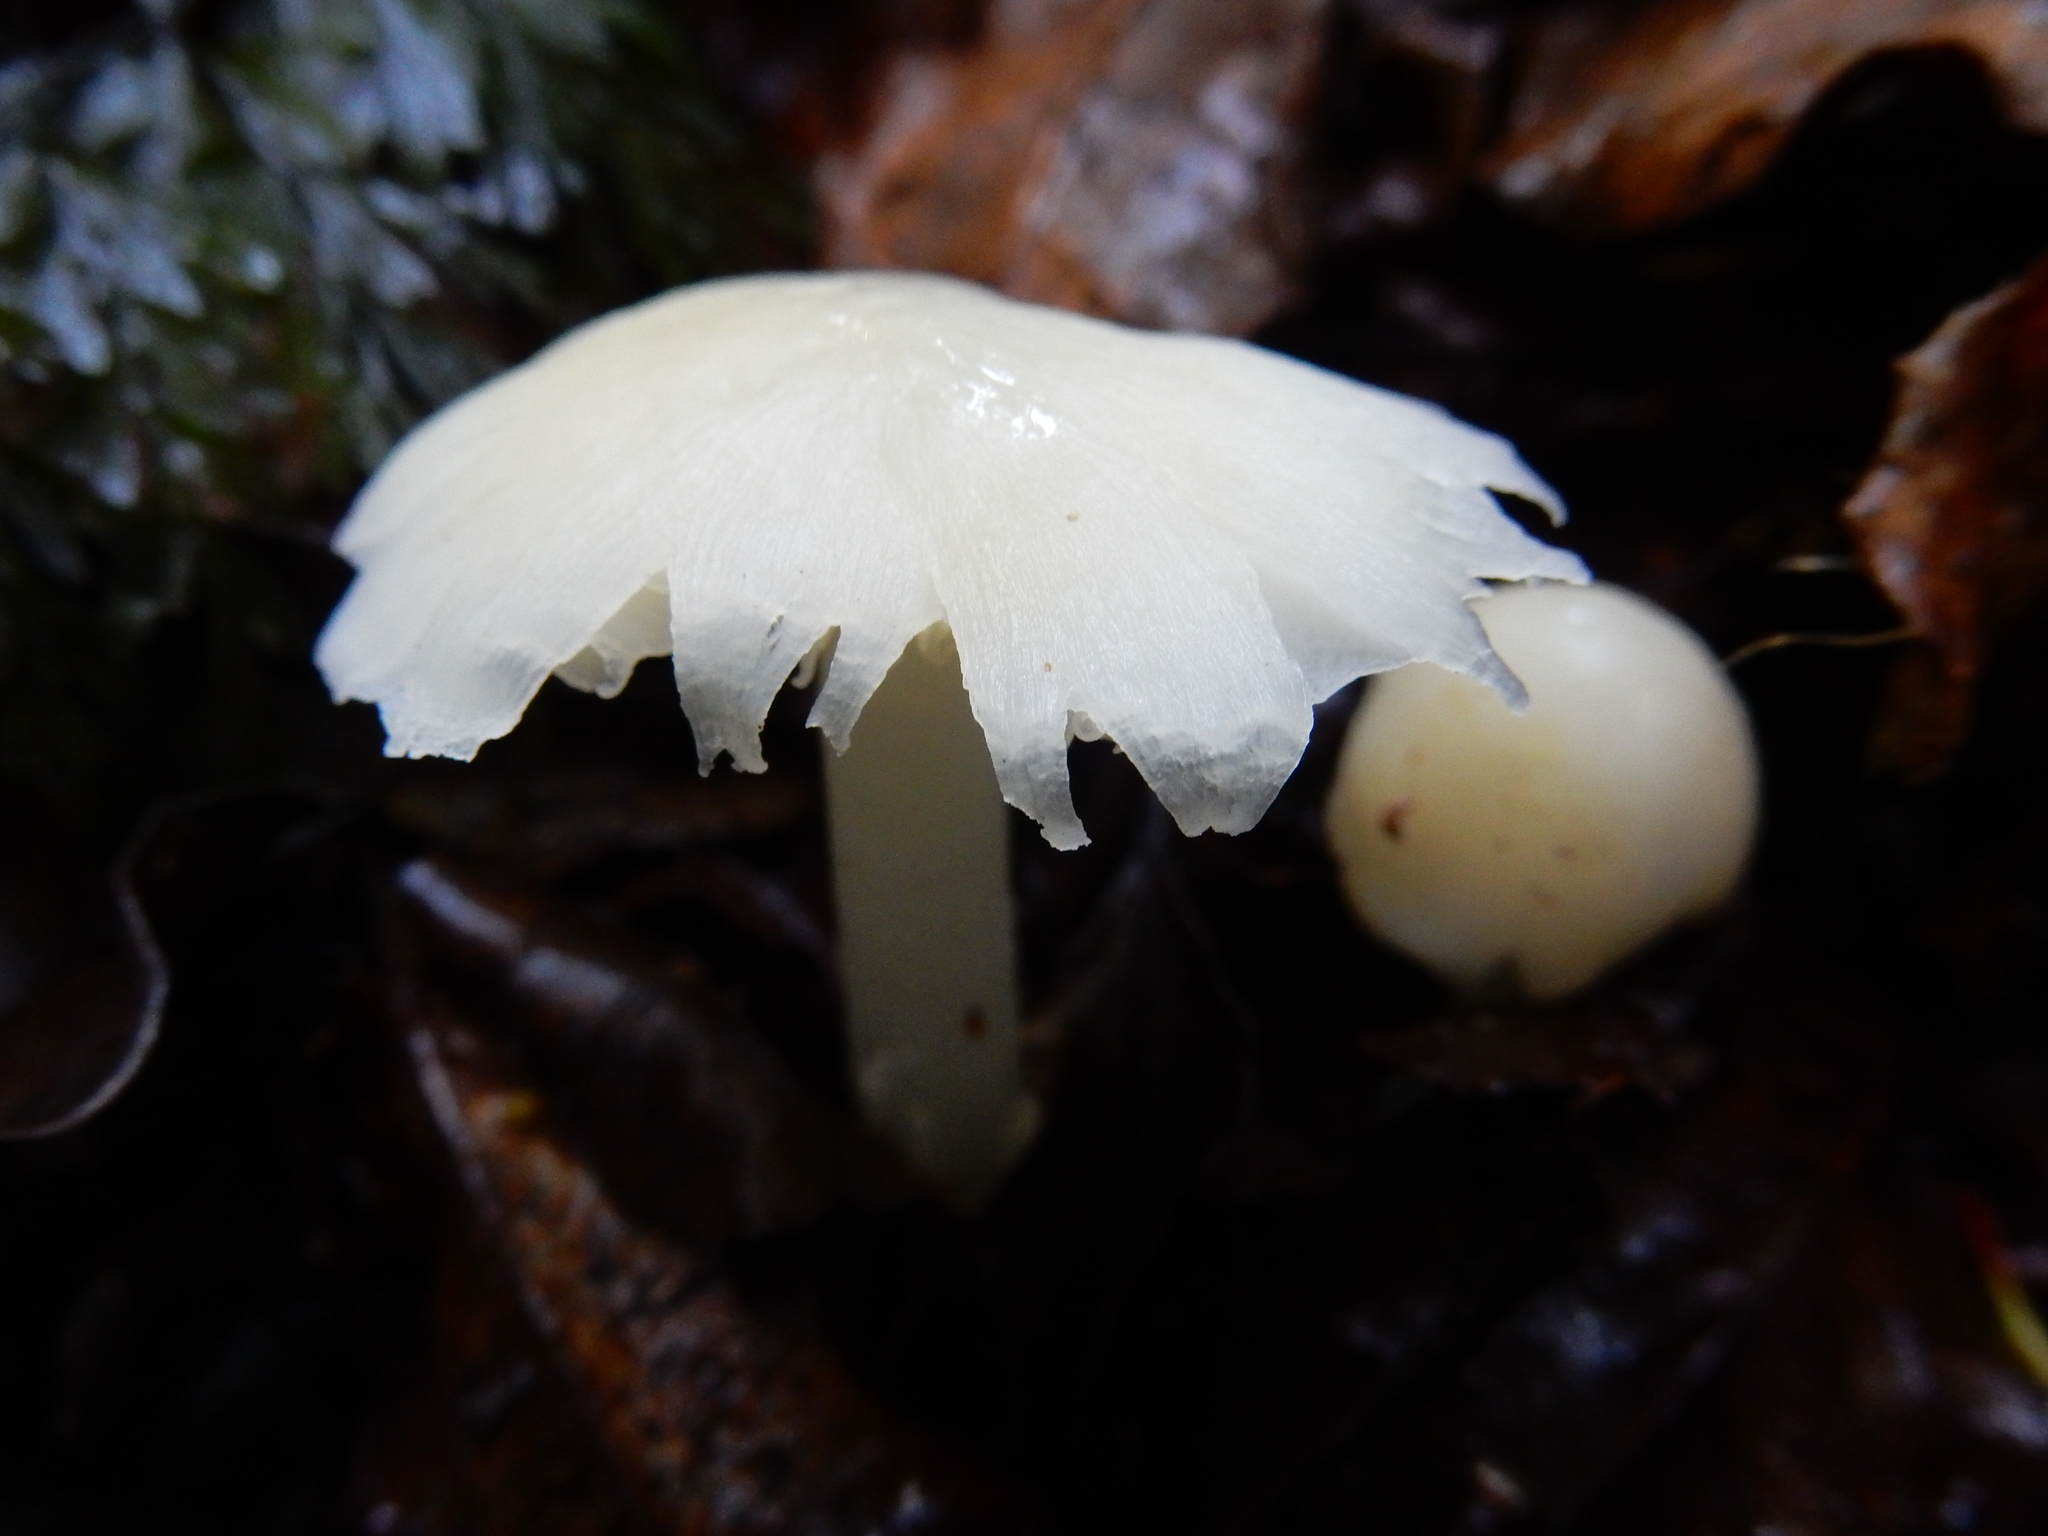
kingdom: Fungi
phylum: Basidiomycota
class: Agaricomycetes
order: Agaricales
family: Hygrophoraceae
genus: Humidicutis
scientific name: Humidicutis mavis
